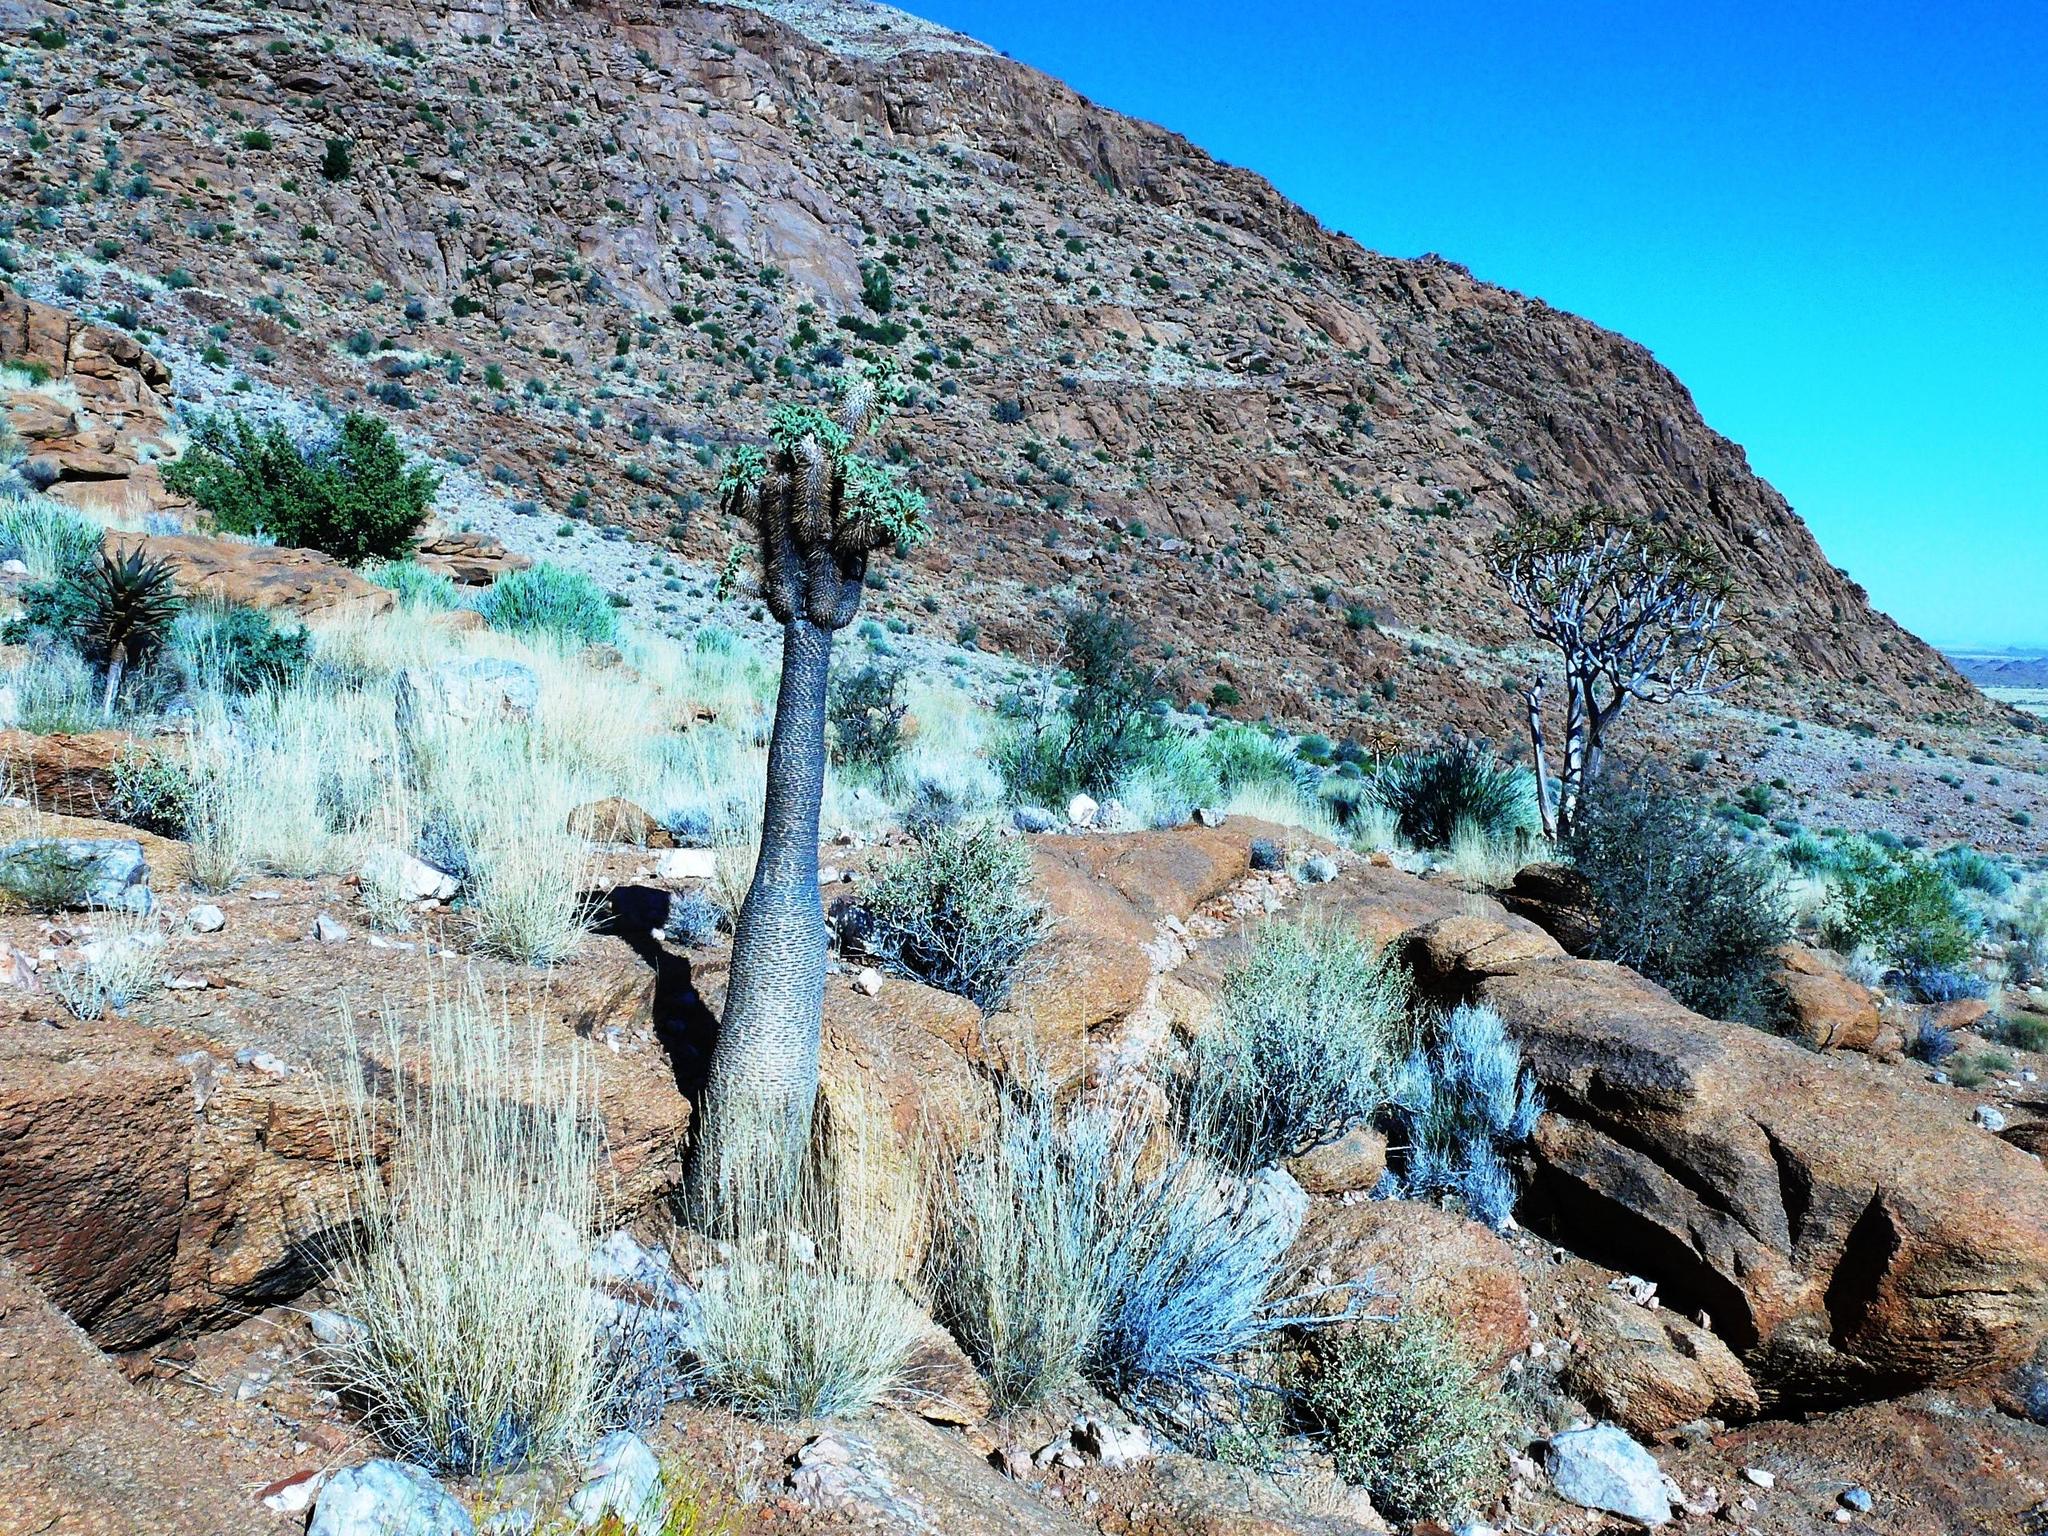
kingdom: Plantae
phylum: Tracheophyta
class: Magnoliopsida
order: Gentianales
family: Apocynaceae
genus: Pachypodium
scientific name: Pachypodium namaquanum
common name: Elephant's trunk
